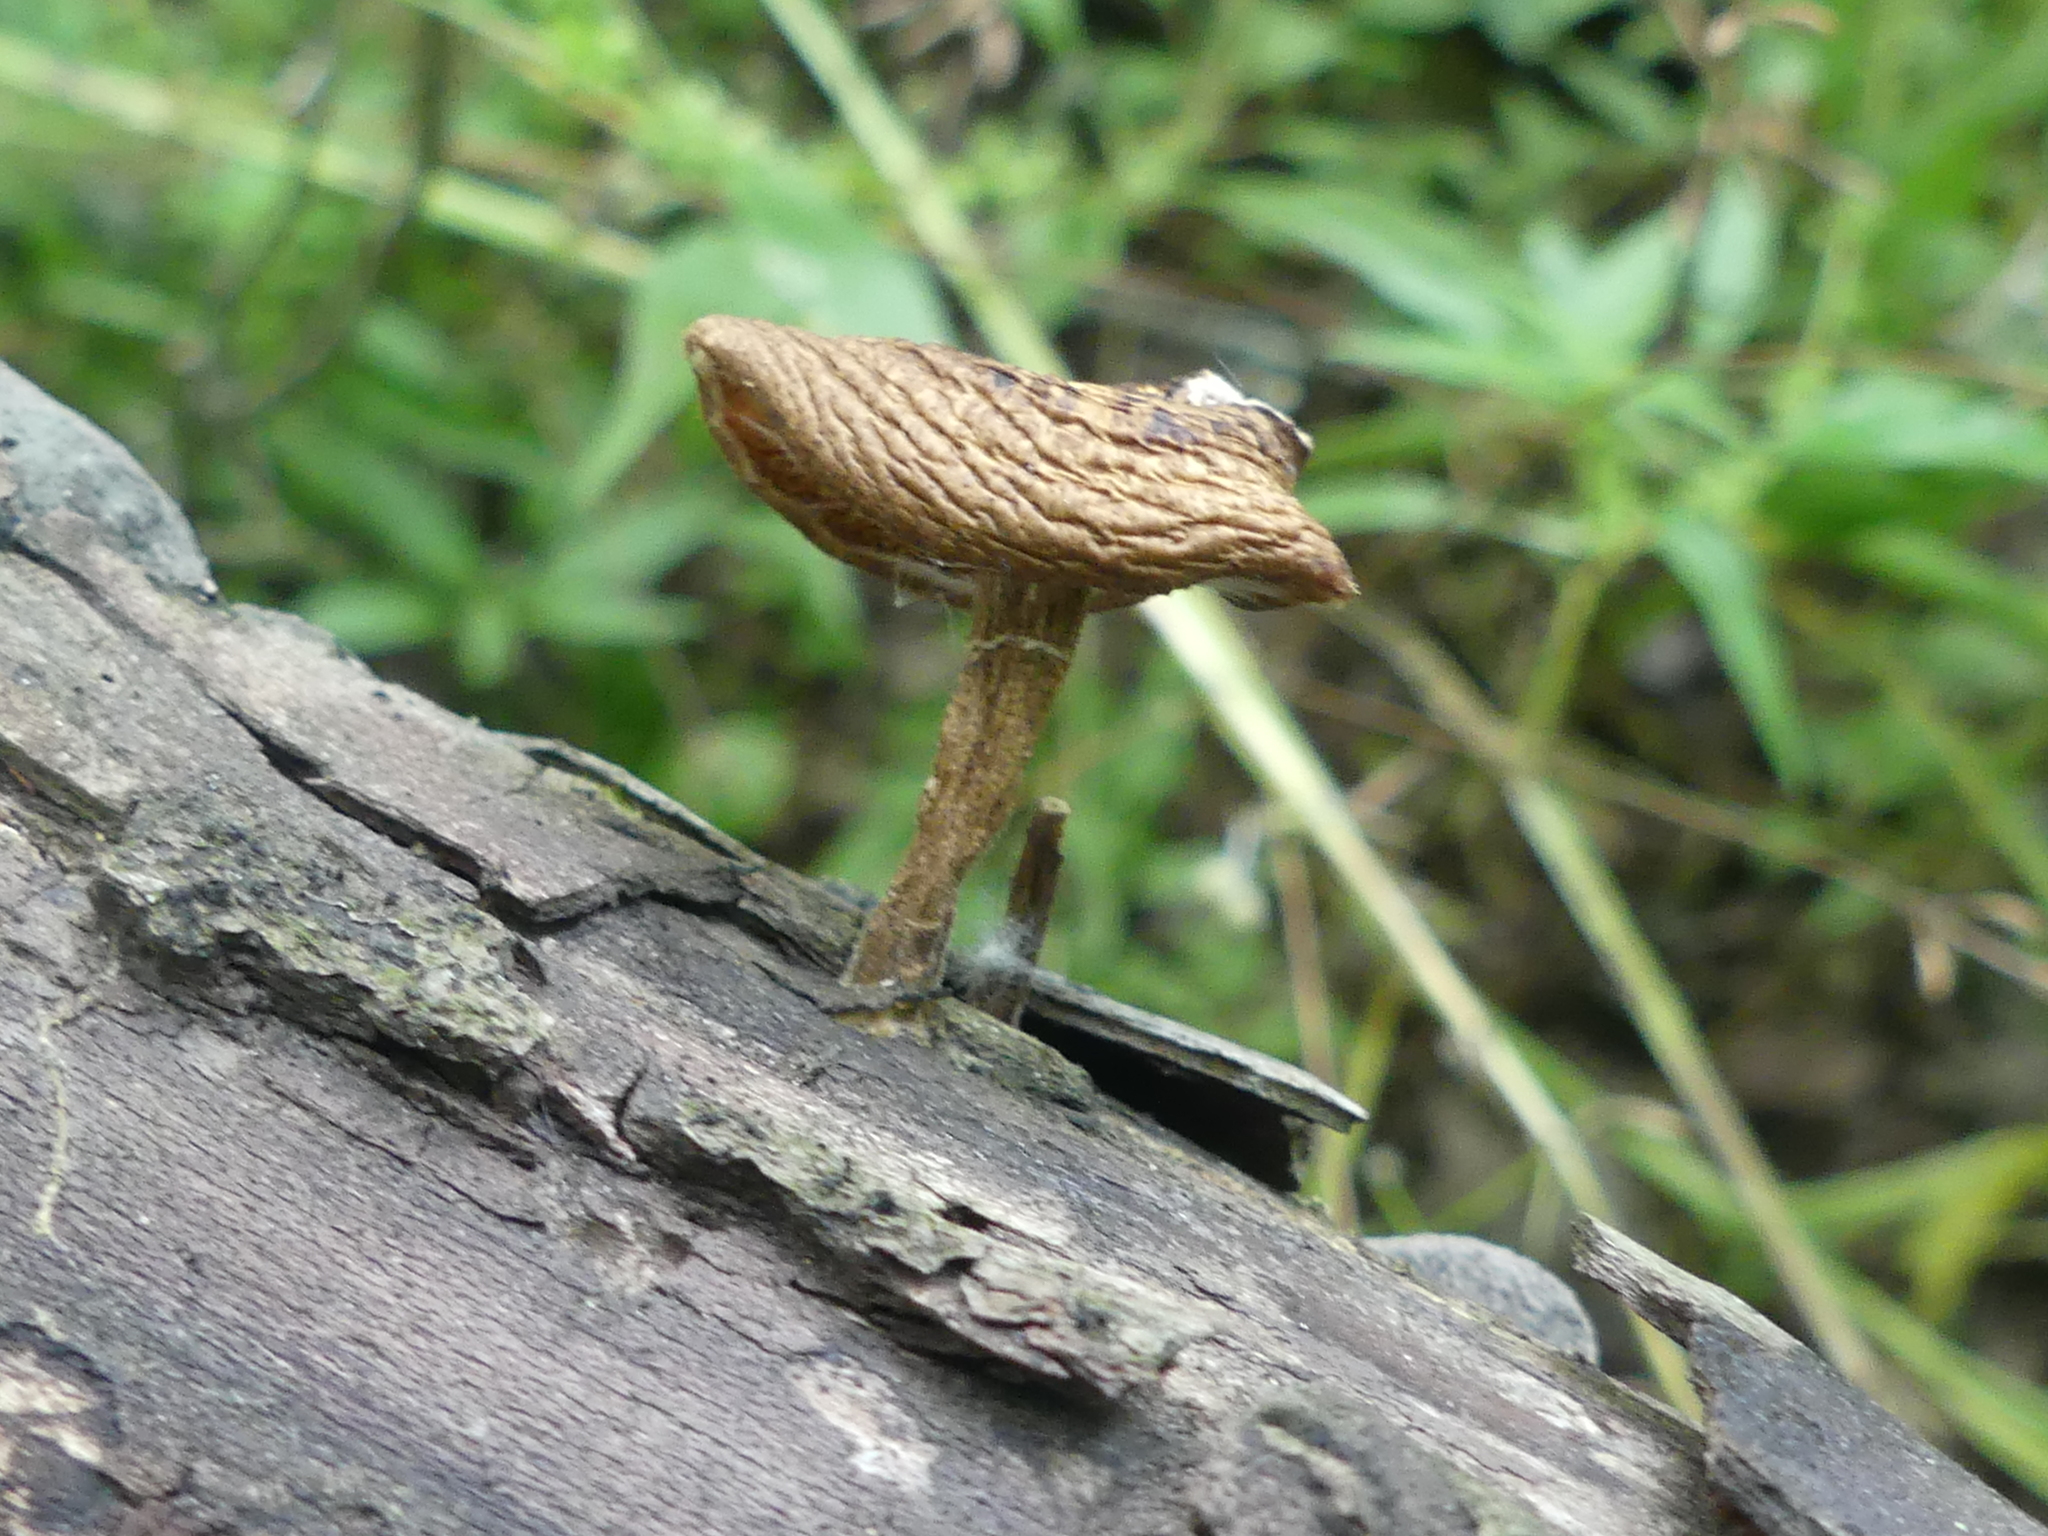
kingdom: Fungi
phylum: Basidiomycota
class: Agaricomycetes
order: Polyporales
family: Polyporaceae
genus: Lentinus
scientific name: Lentinus arcularius
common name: Spring polypore
